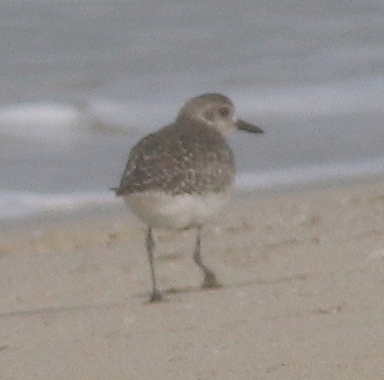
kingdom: Animalia
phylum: Chordata
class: Aves
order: Charadriiformes
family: Charadriidae
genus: Pluvialis
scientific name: Pluvialis squatarola
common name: Grey plover
